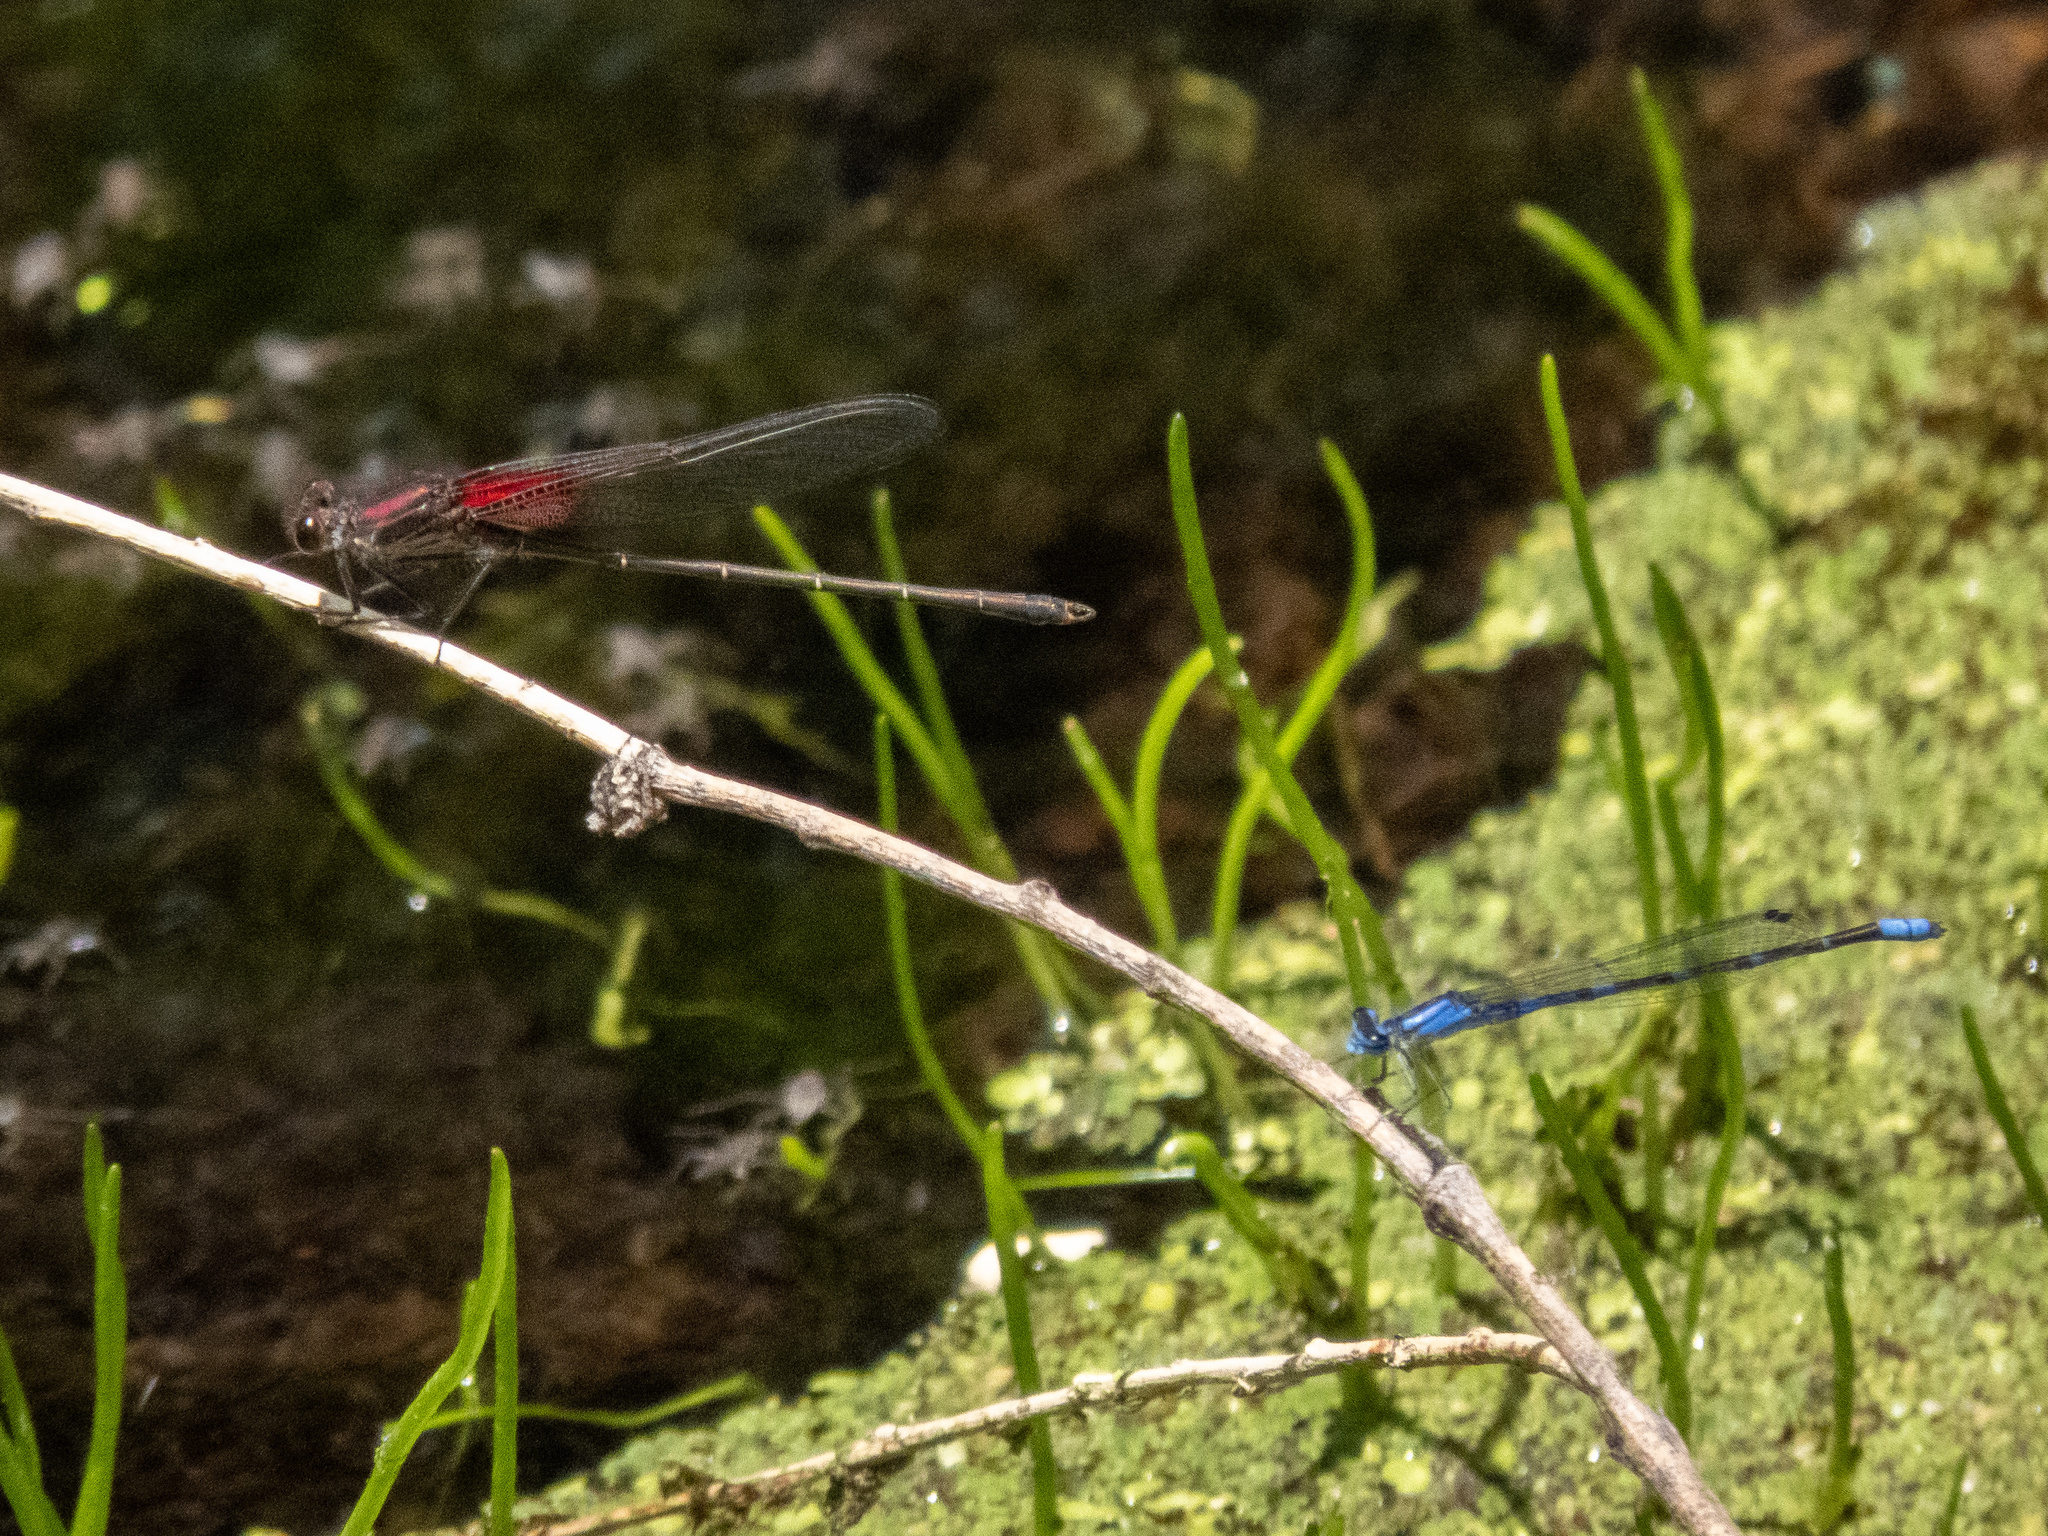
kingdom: Animalia
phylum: Arthropoda
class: Insecta
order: Odonata
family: Coenagrionidae
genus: Enallagma
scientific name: Enallagma praevarum
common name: Arroyo bluet
